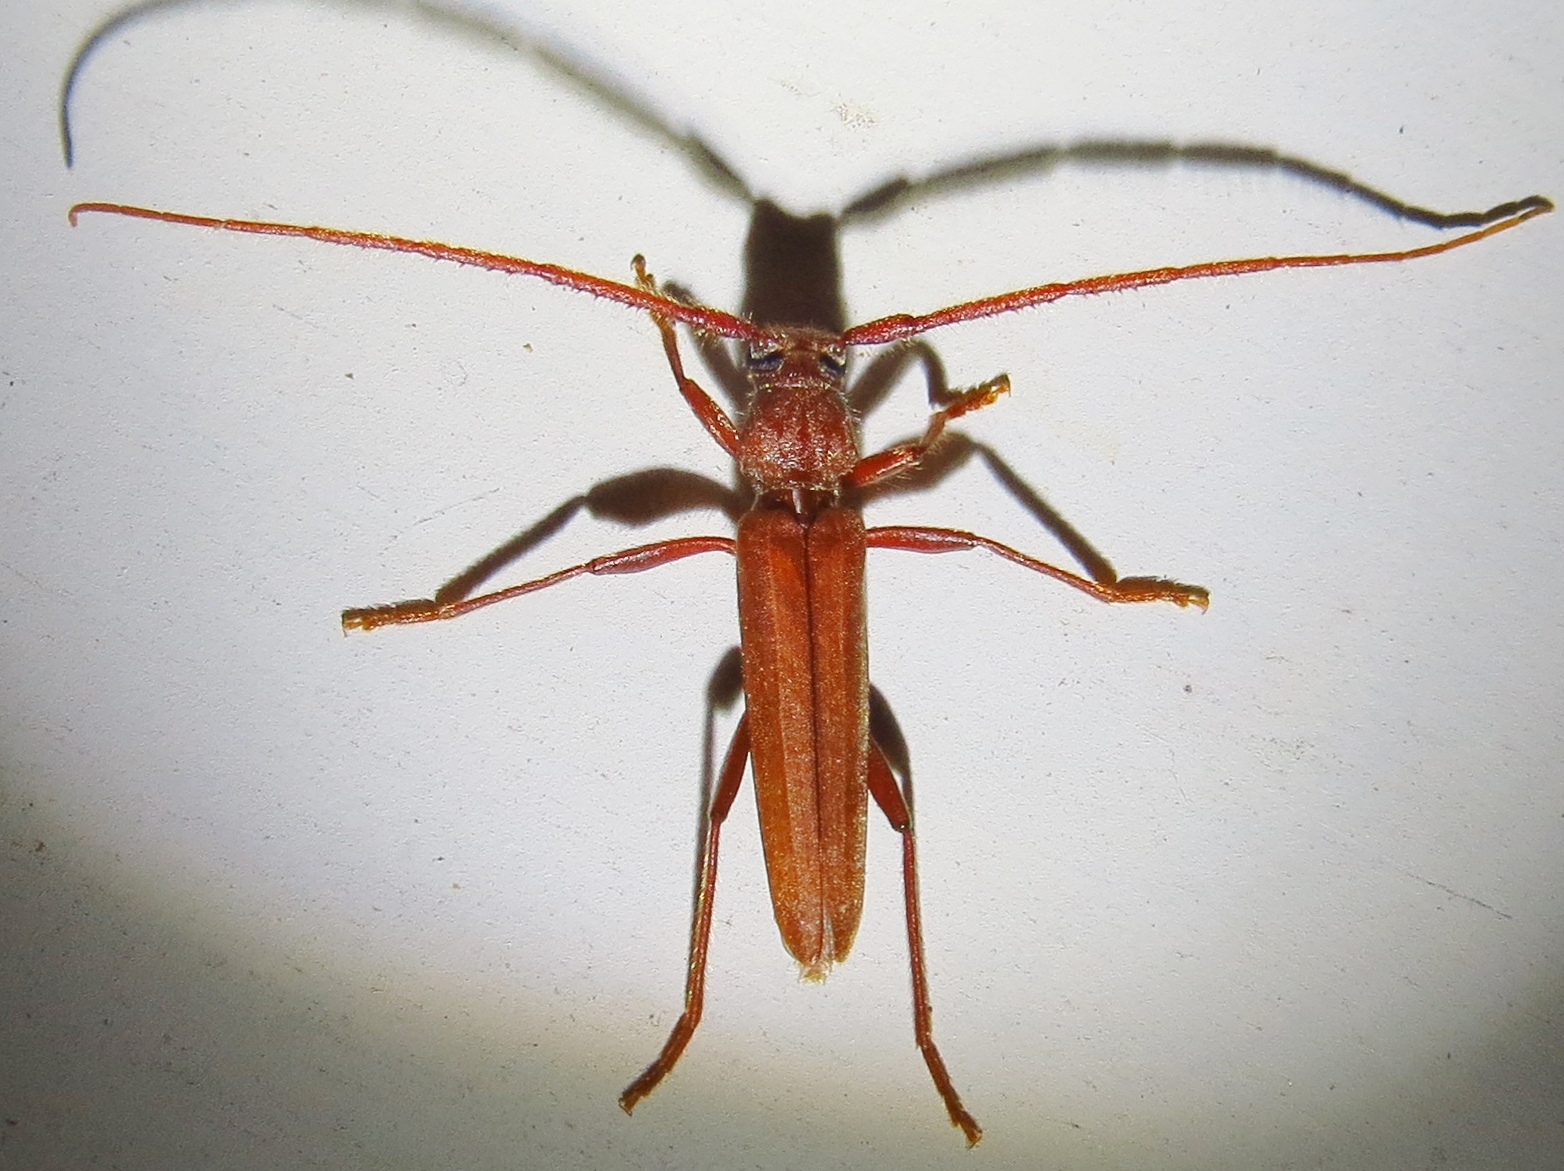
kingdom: Animalia
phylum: Arthropoda
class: Insecta
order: Coleoptera
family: Cerambycidae
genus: Oeme
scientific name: Oeme rigida
